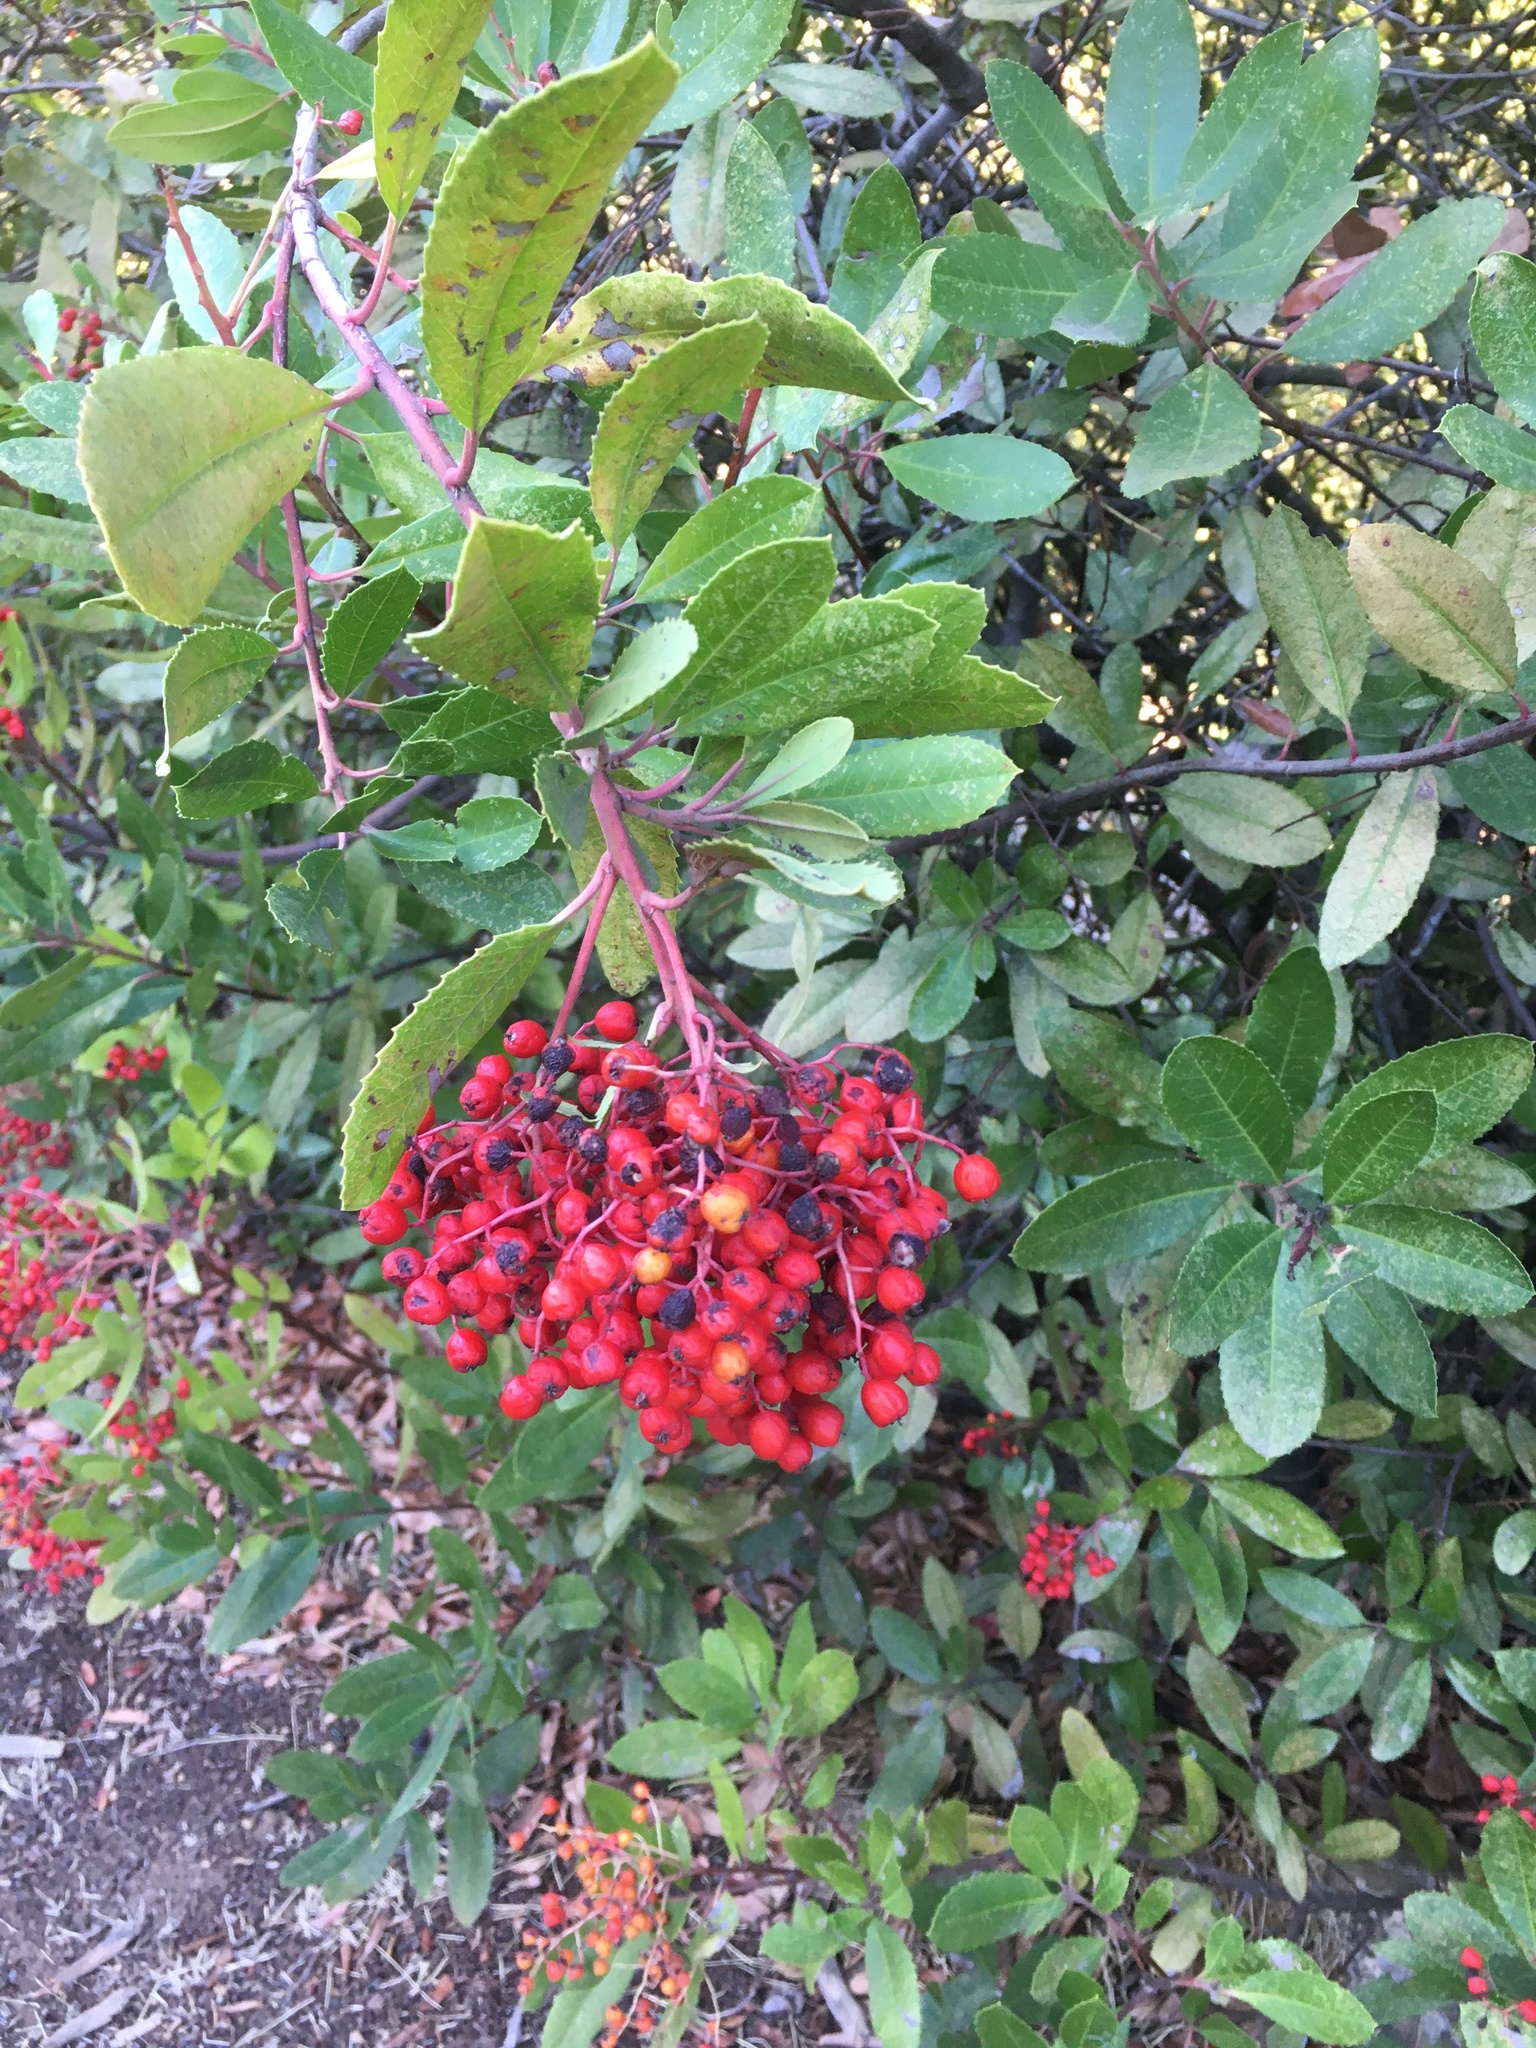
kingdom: Plantae
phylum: Tracheophyta
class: Magnoliopsida
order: Rosales
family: Rosaceae
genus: Heteromeles
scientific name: Heteromeles arbutifolia
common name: California-holly
